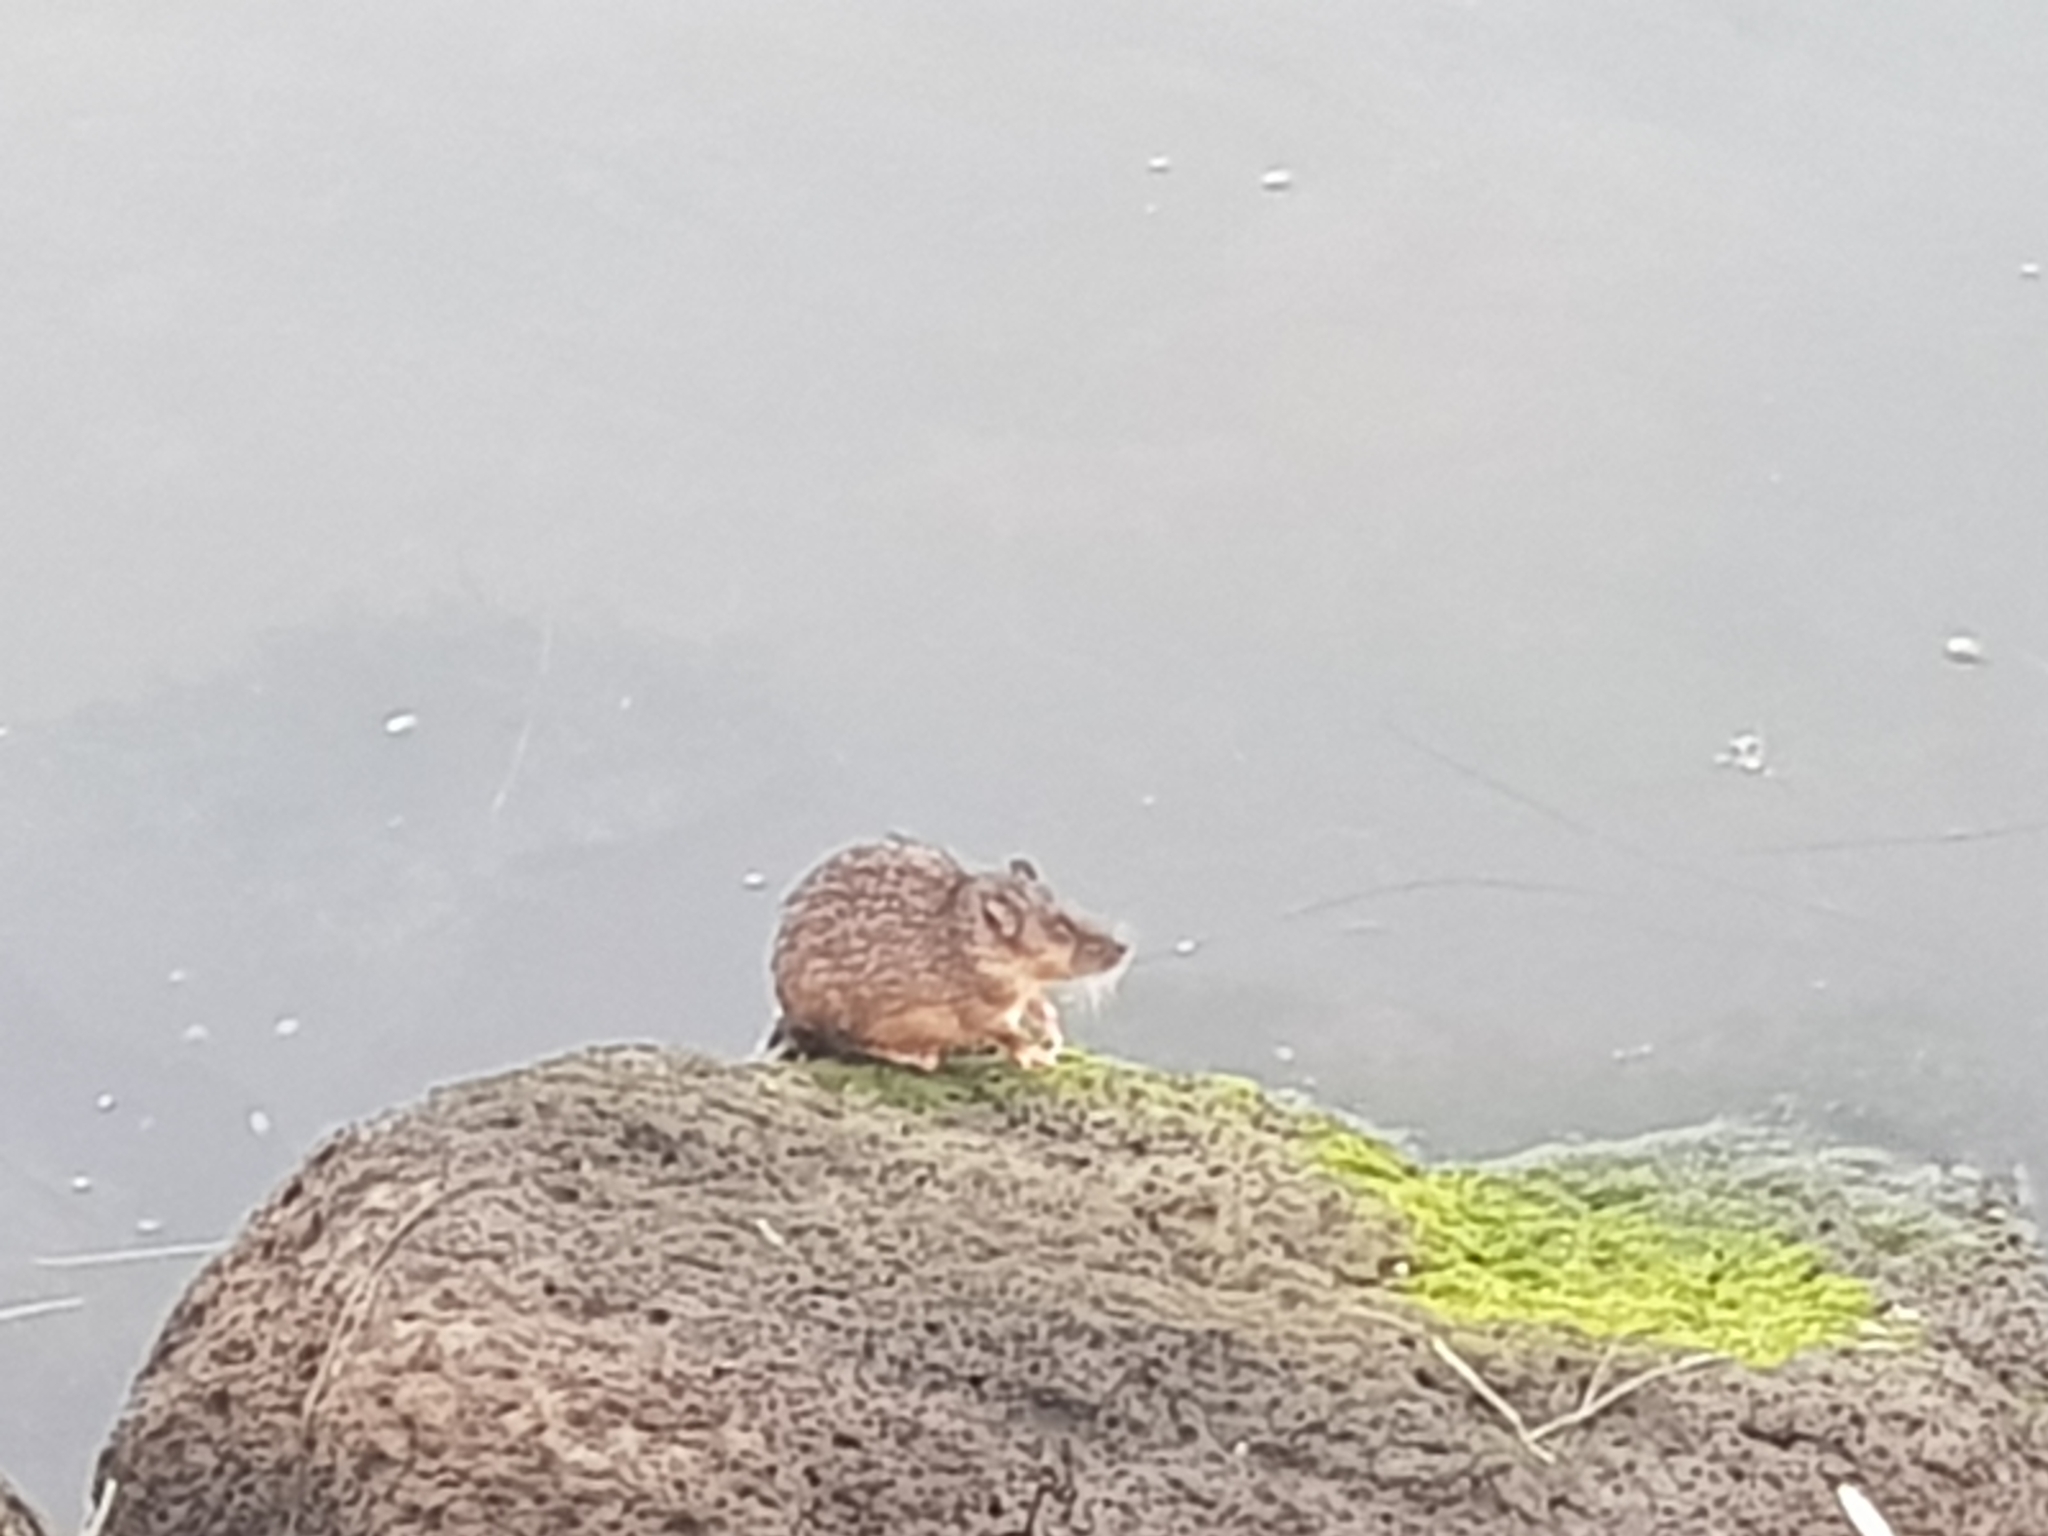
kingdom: Animalia
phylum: Chordata
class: Mammalia
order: Rodentia
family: Muridae
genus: Hydromys
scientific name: Hydromys chrysogaster
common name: Common water rat
